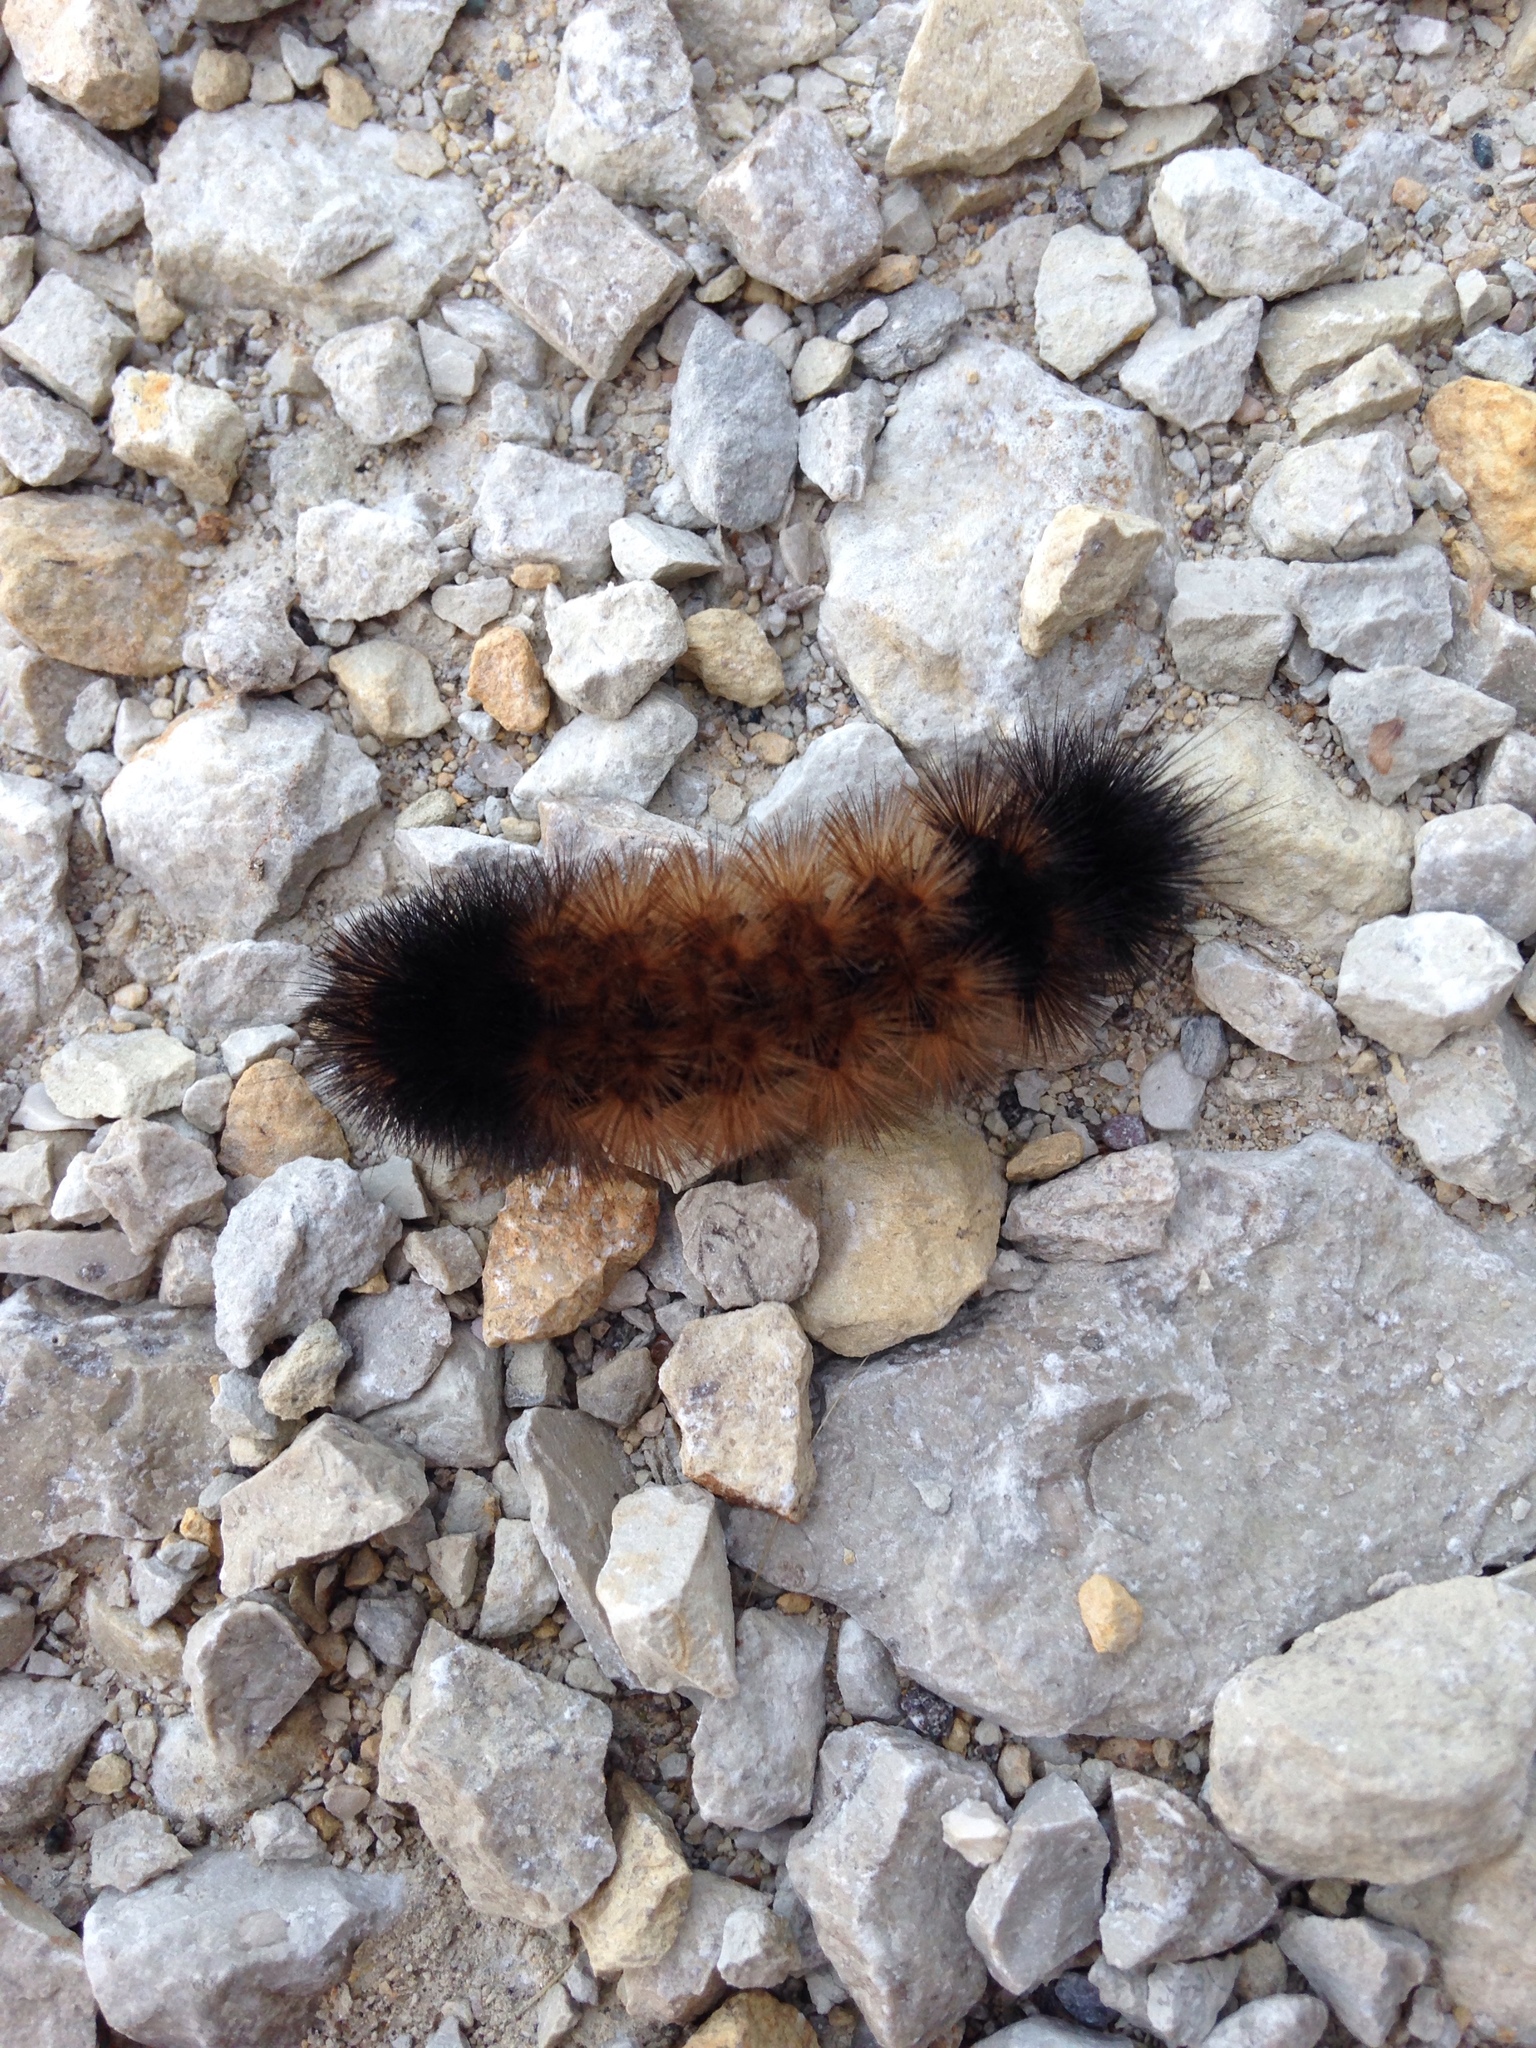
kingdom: Animalia
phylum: Arthropoda
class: Insecta
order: Lepidoptera
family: Erebidae
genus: Pyrrharctia
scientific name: Pyrrharctia isabella
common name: Isabella tiger moth
